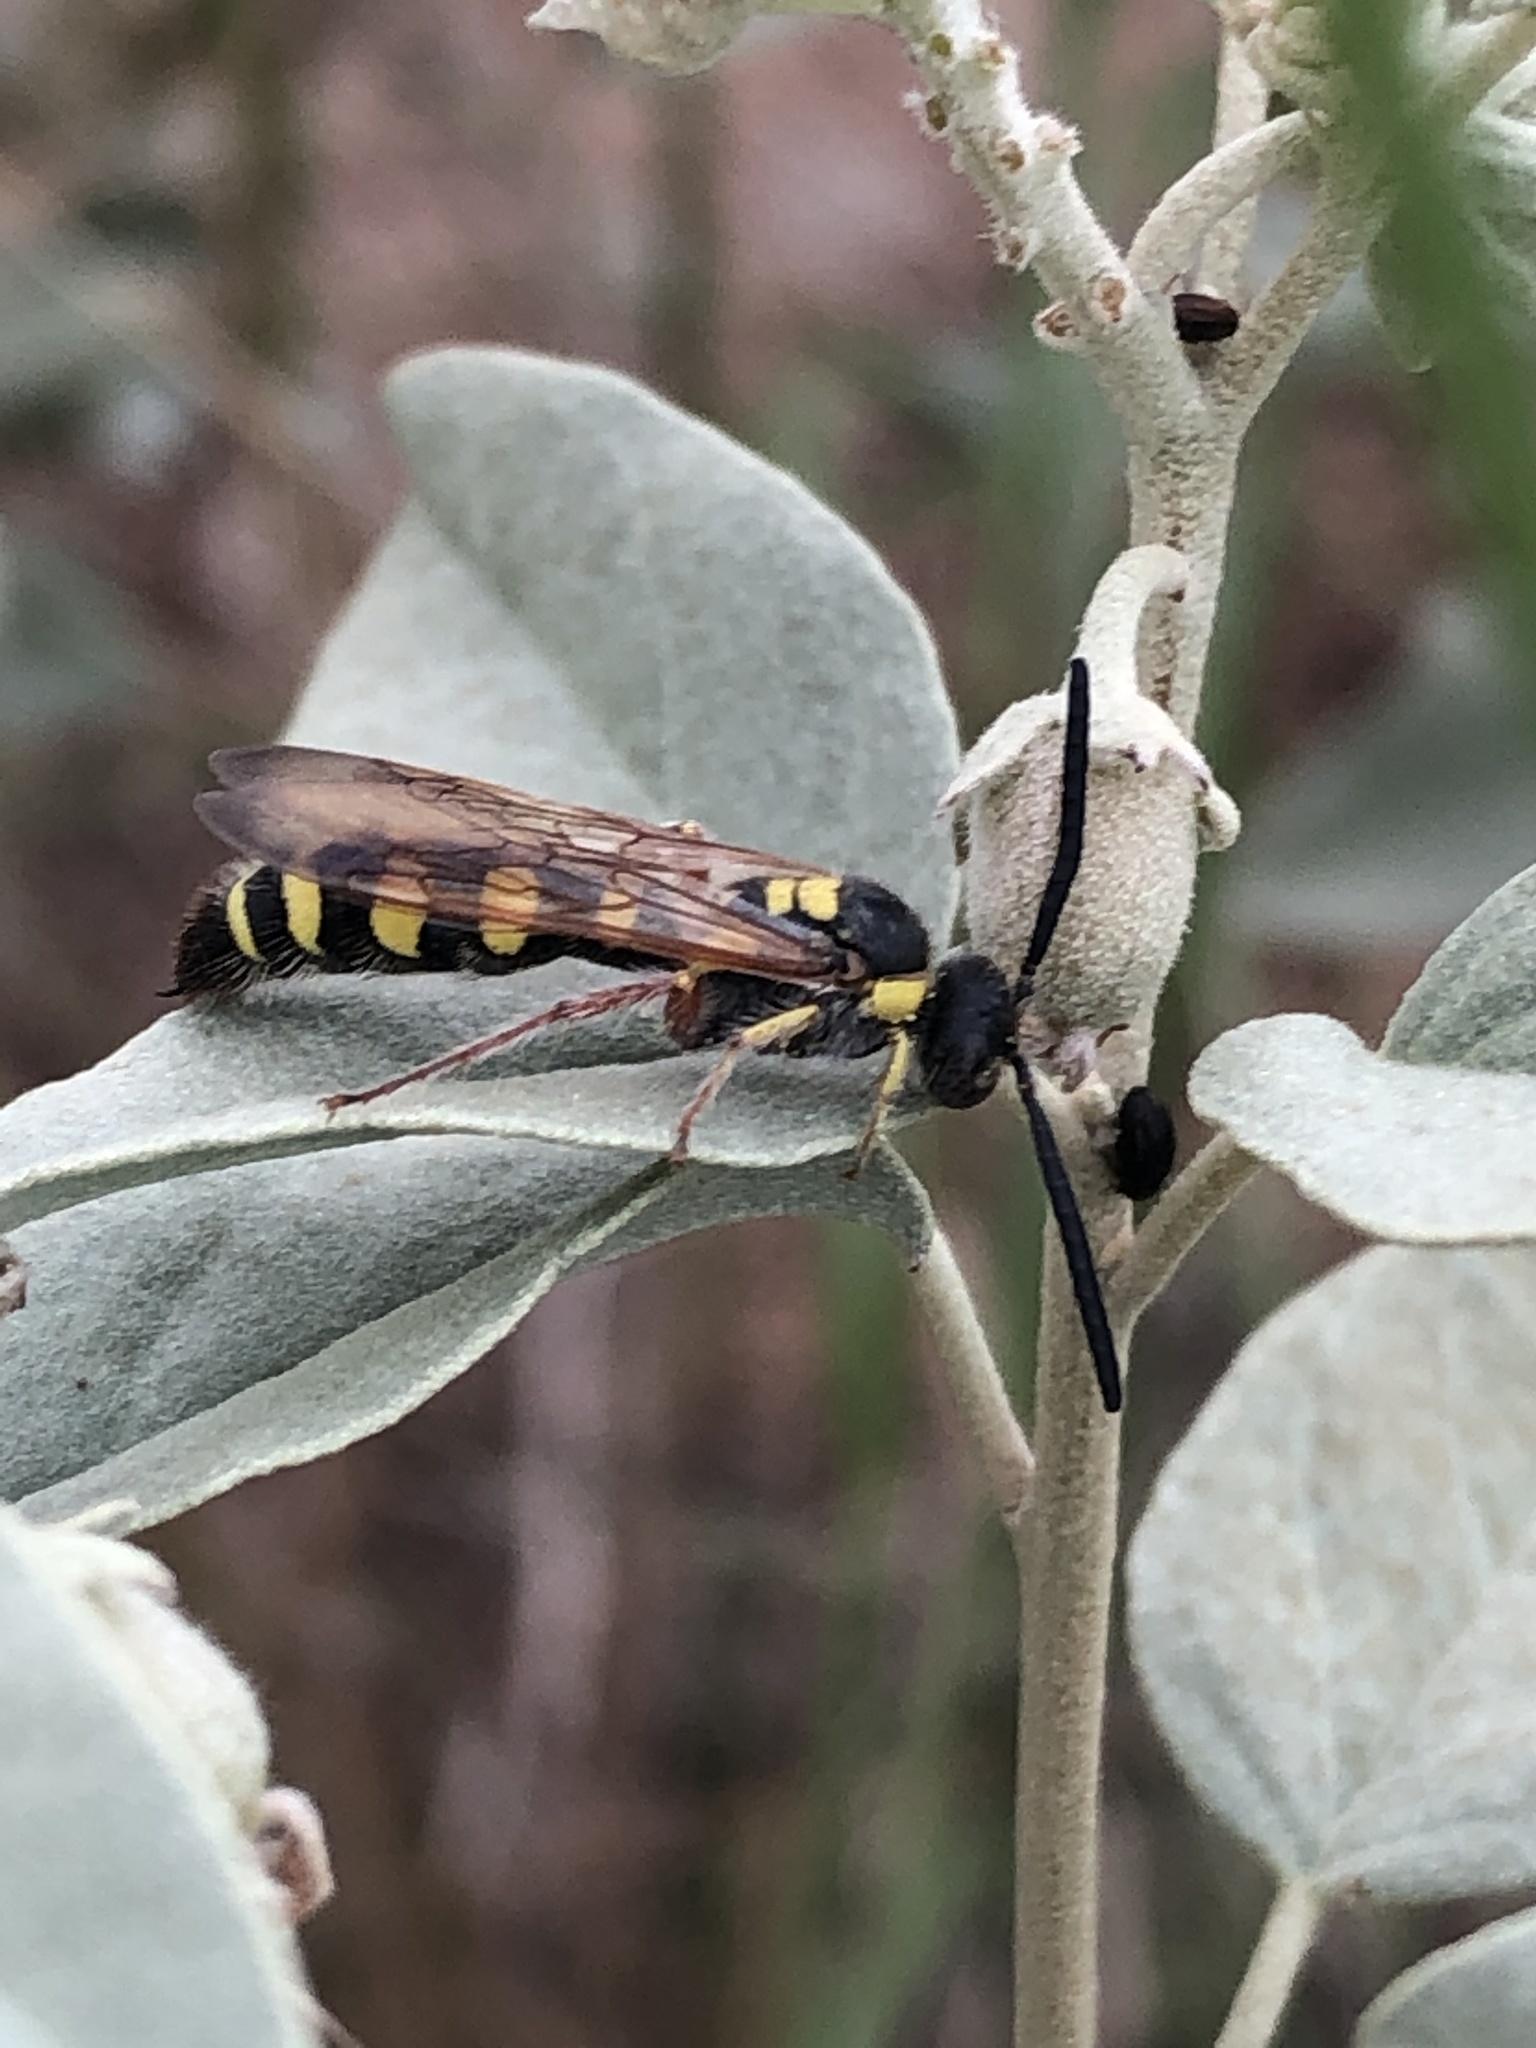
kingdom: Animalia
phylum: Arthropoda
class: Insecta
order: Hymenoptera
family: Scoliidae
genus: Colpa
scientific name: Colpa octomaculata
